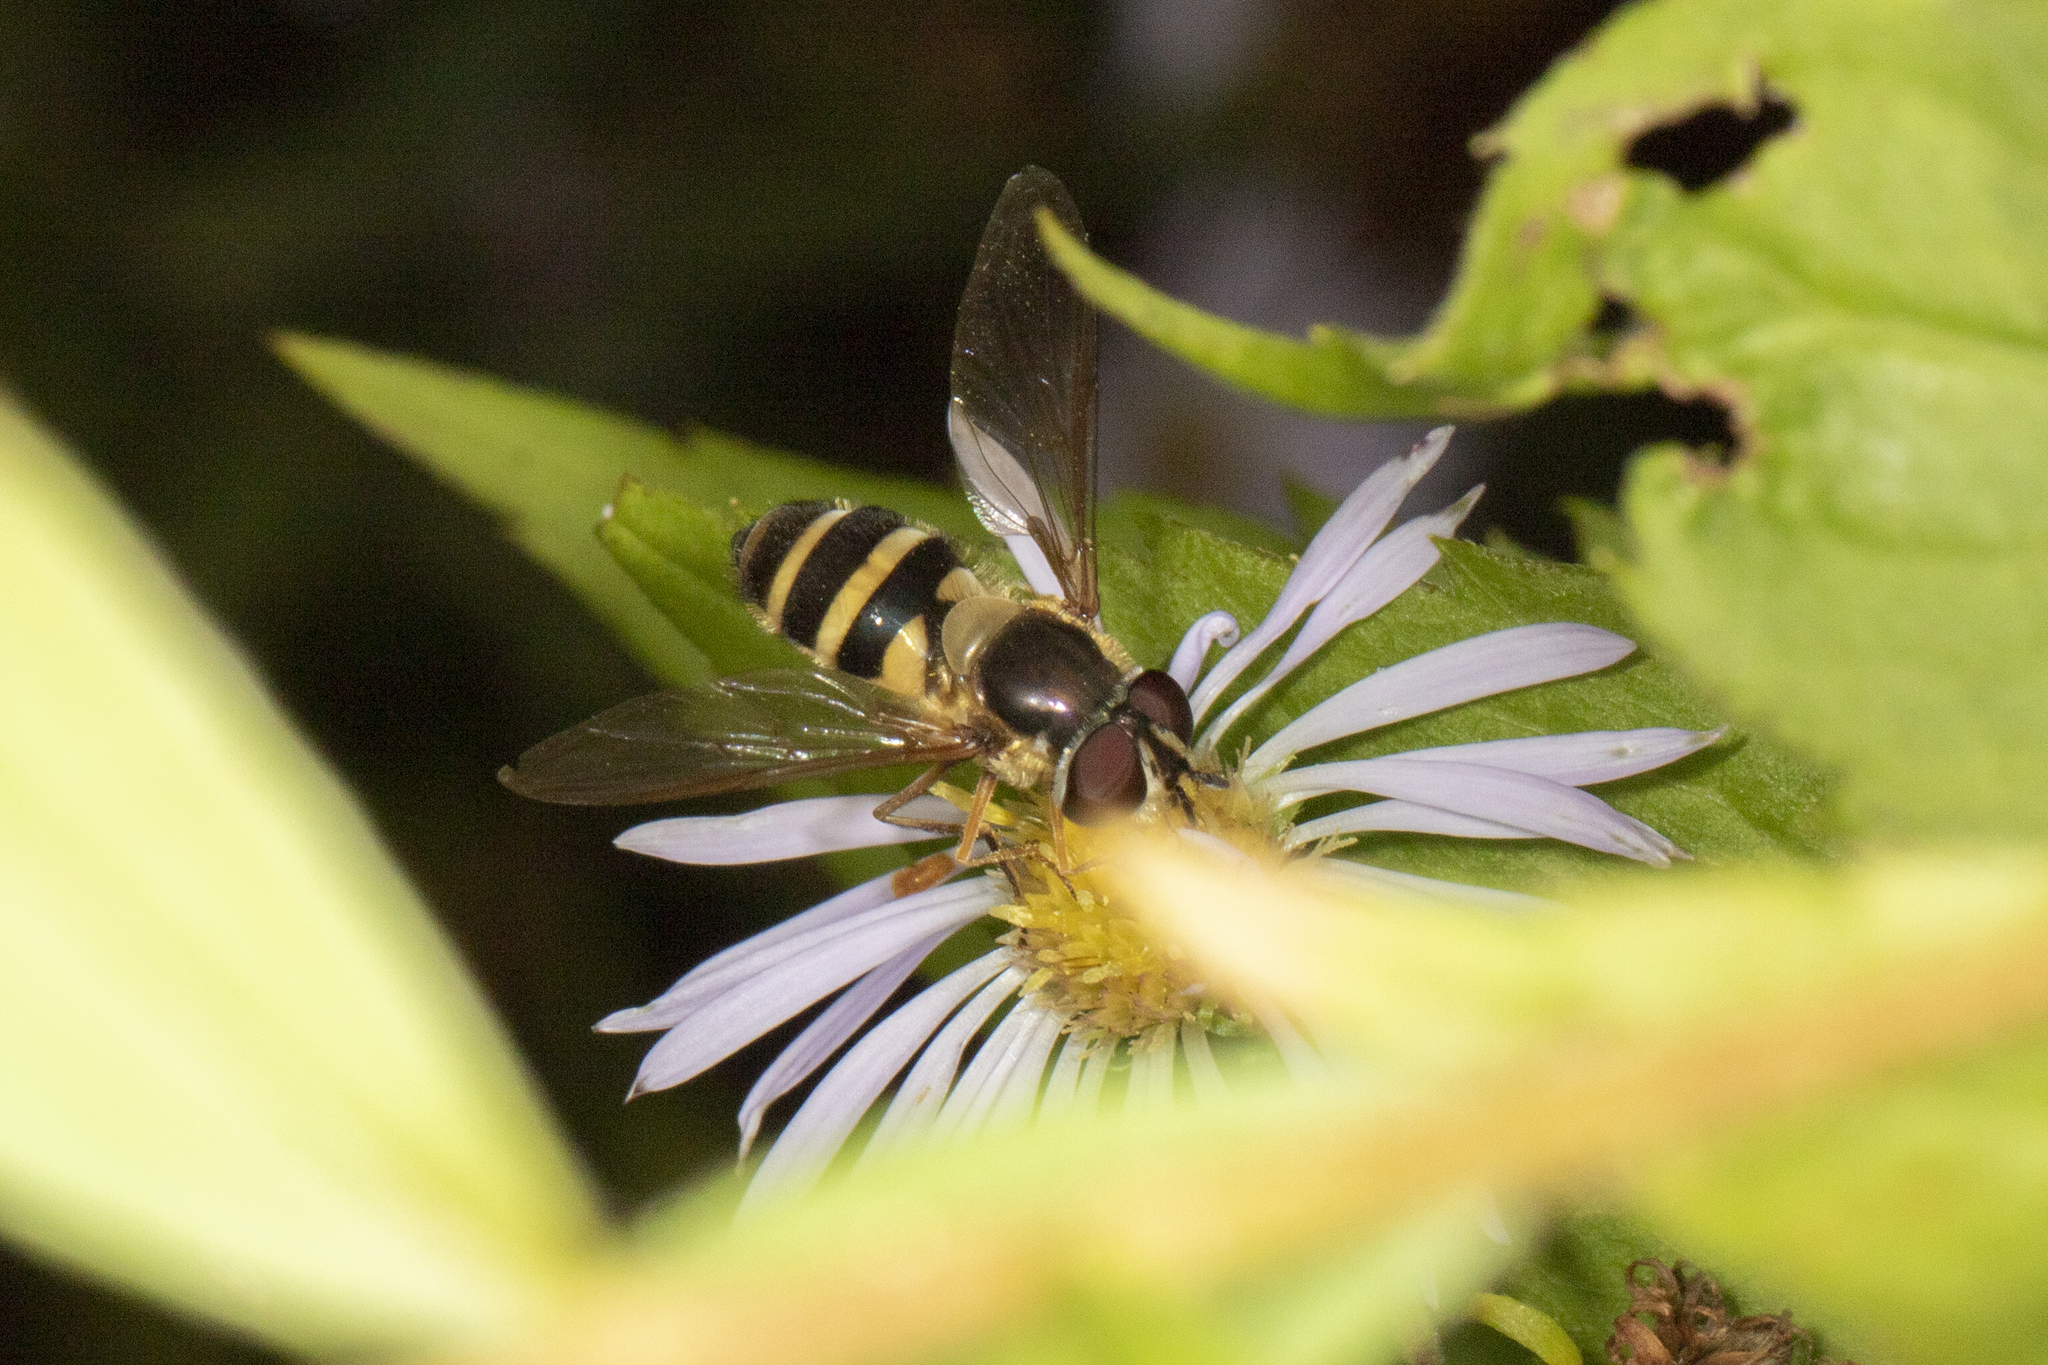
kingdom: Animalia
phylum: Arthropoda
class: Insecta
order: Diptera
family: Syrphidae
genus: Epistrophe
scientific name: Epistrophe grossulariae
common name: Black-horned smoothtail
